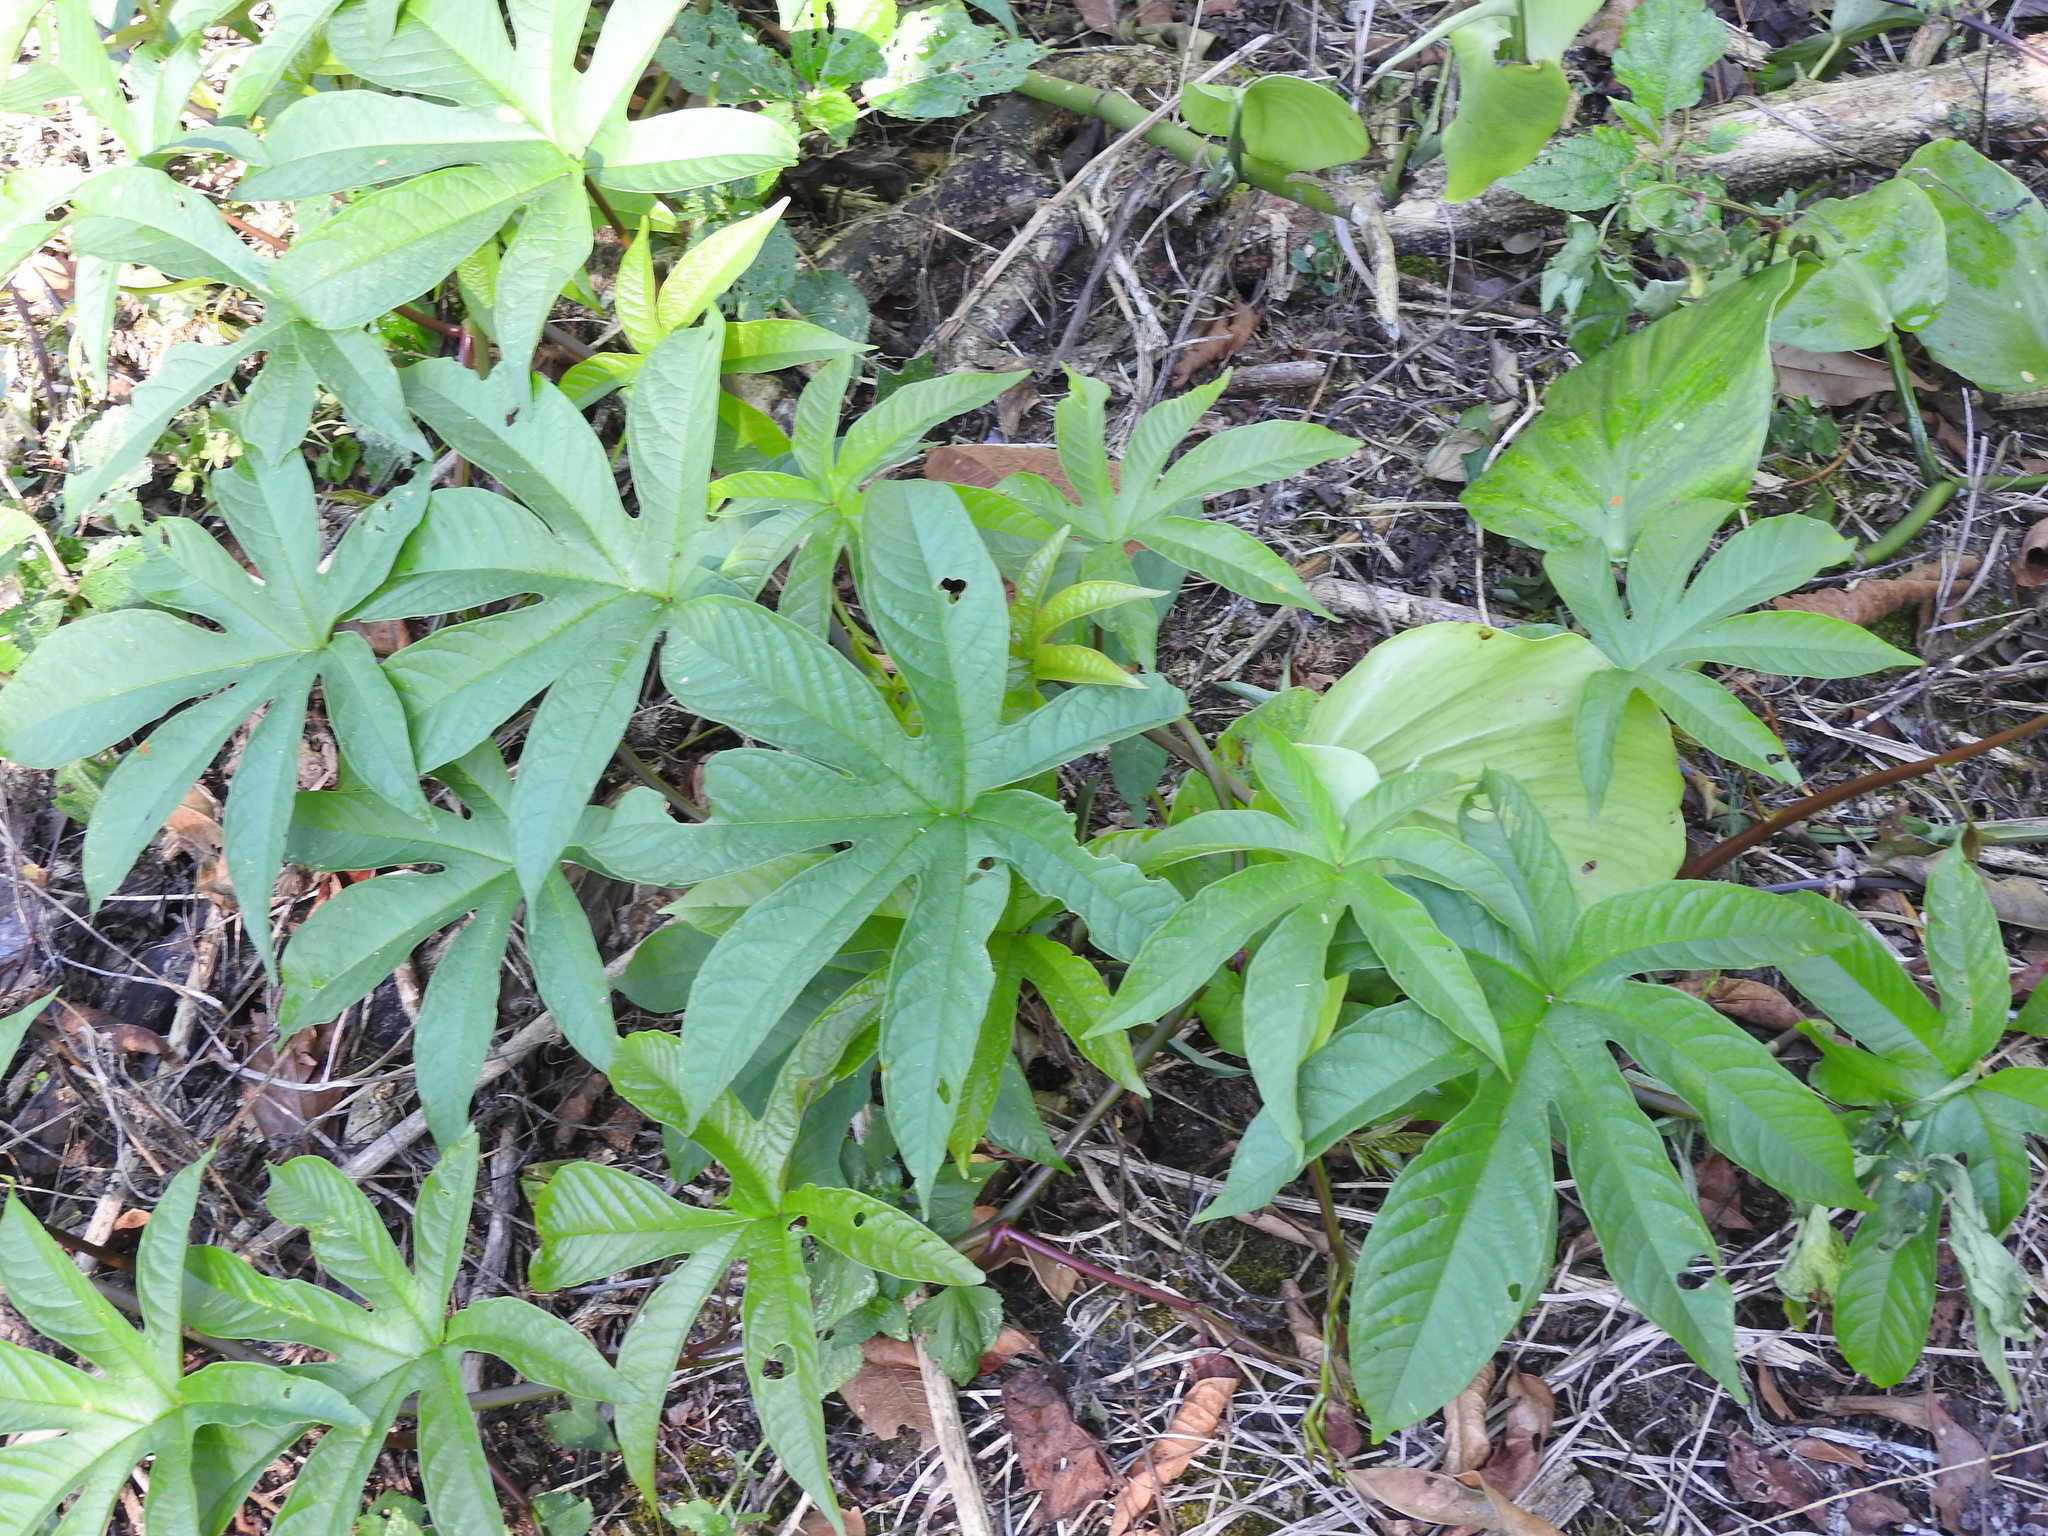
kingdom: Plantae
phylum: Tracheophyta
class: Magnoliopsida
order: Solanales
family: Convolvulaceae
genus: Distimake
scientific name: Distimake tuberosus
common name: Spanish arborvine
